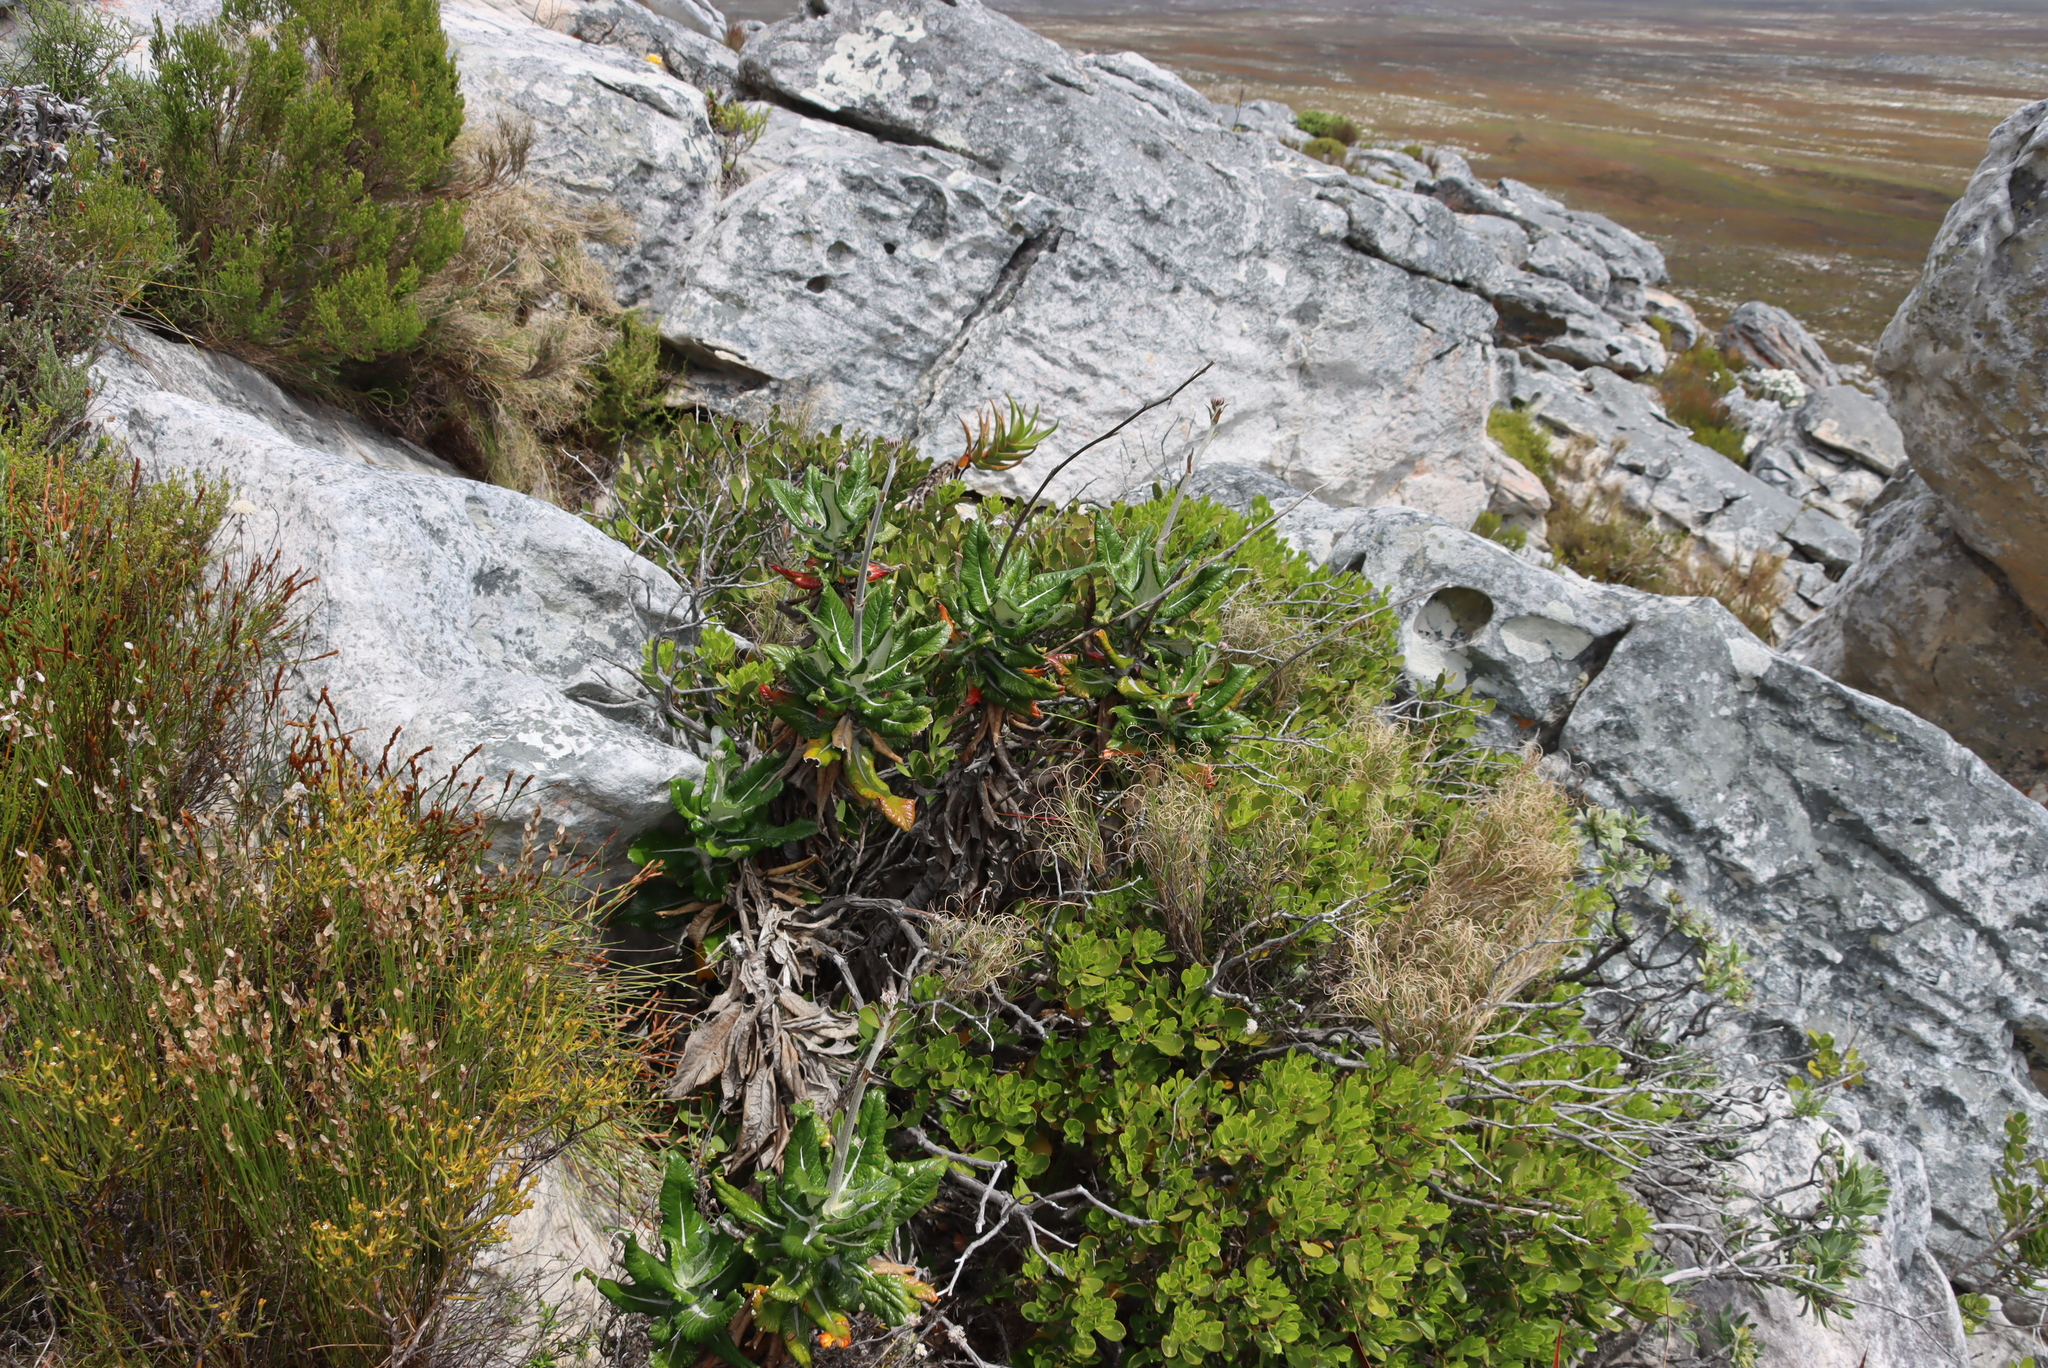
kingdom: Plantae
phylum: Tracheophyta
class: Magnoliopsida
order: Apiales
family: Apiaceae
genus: Hermas
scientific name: Hermas villosa
